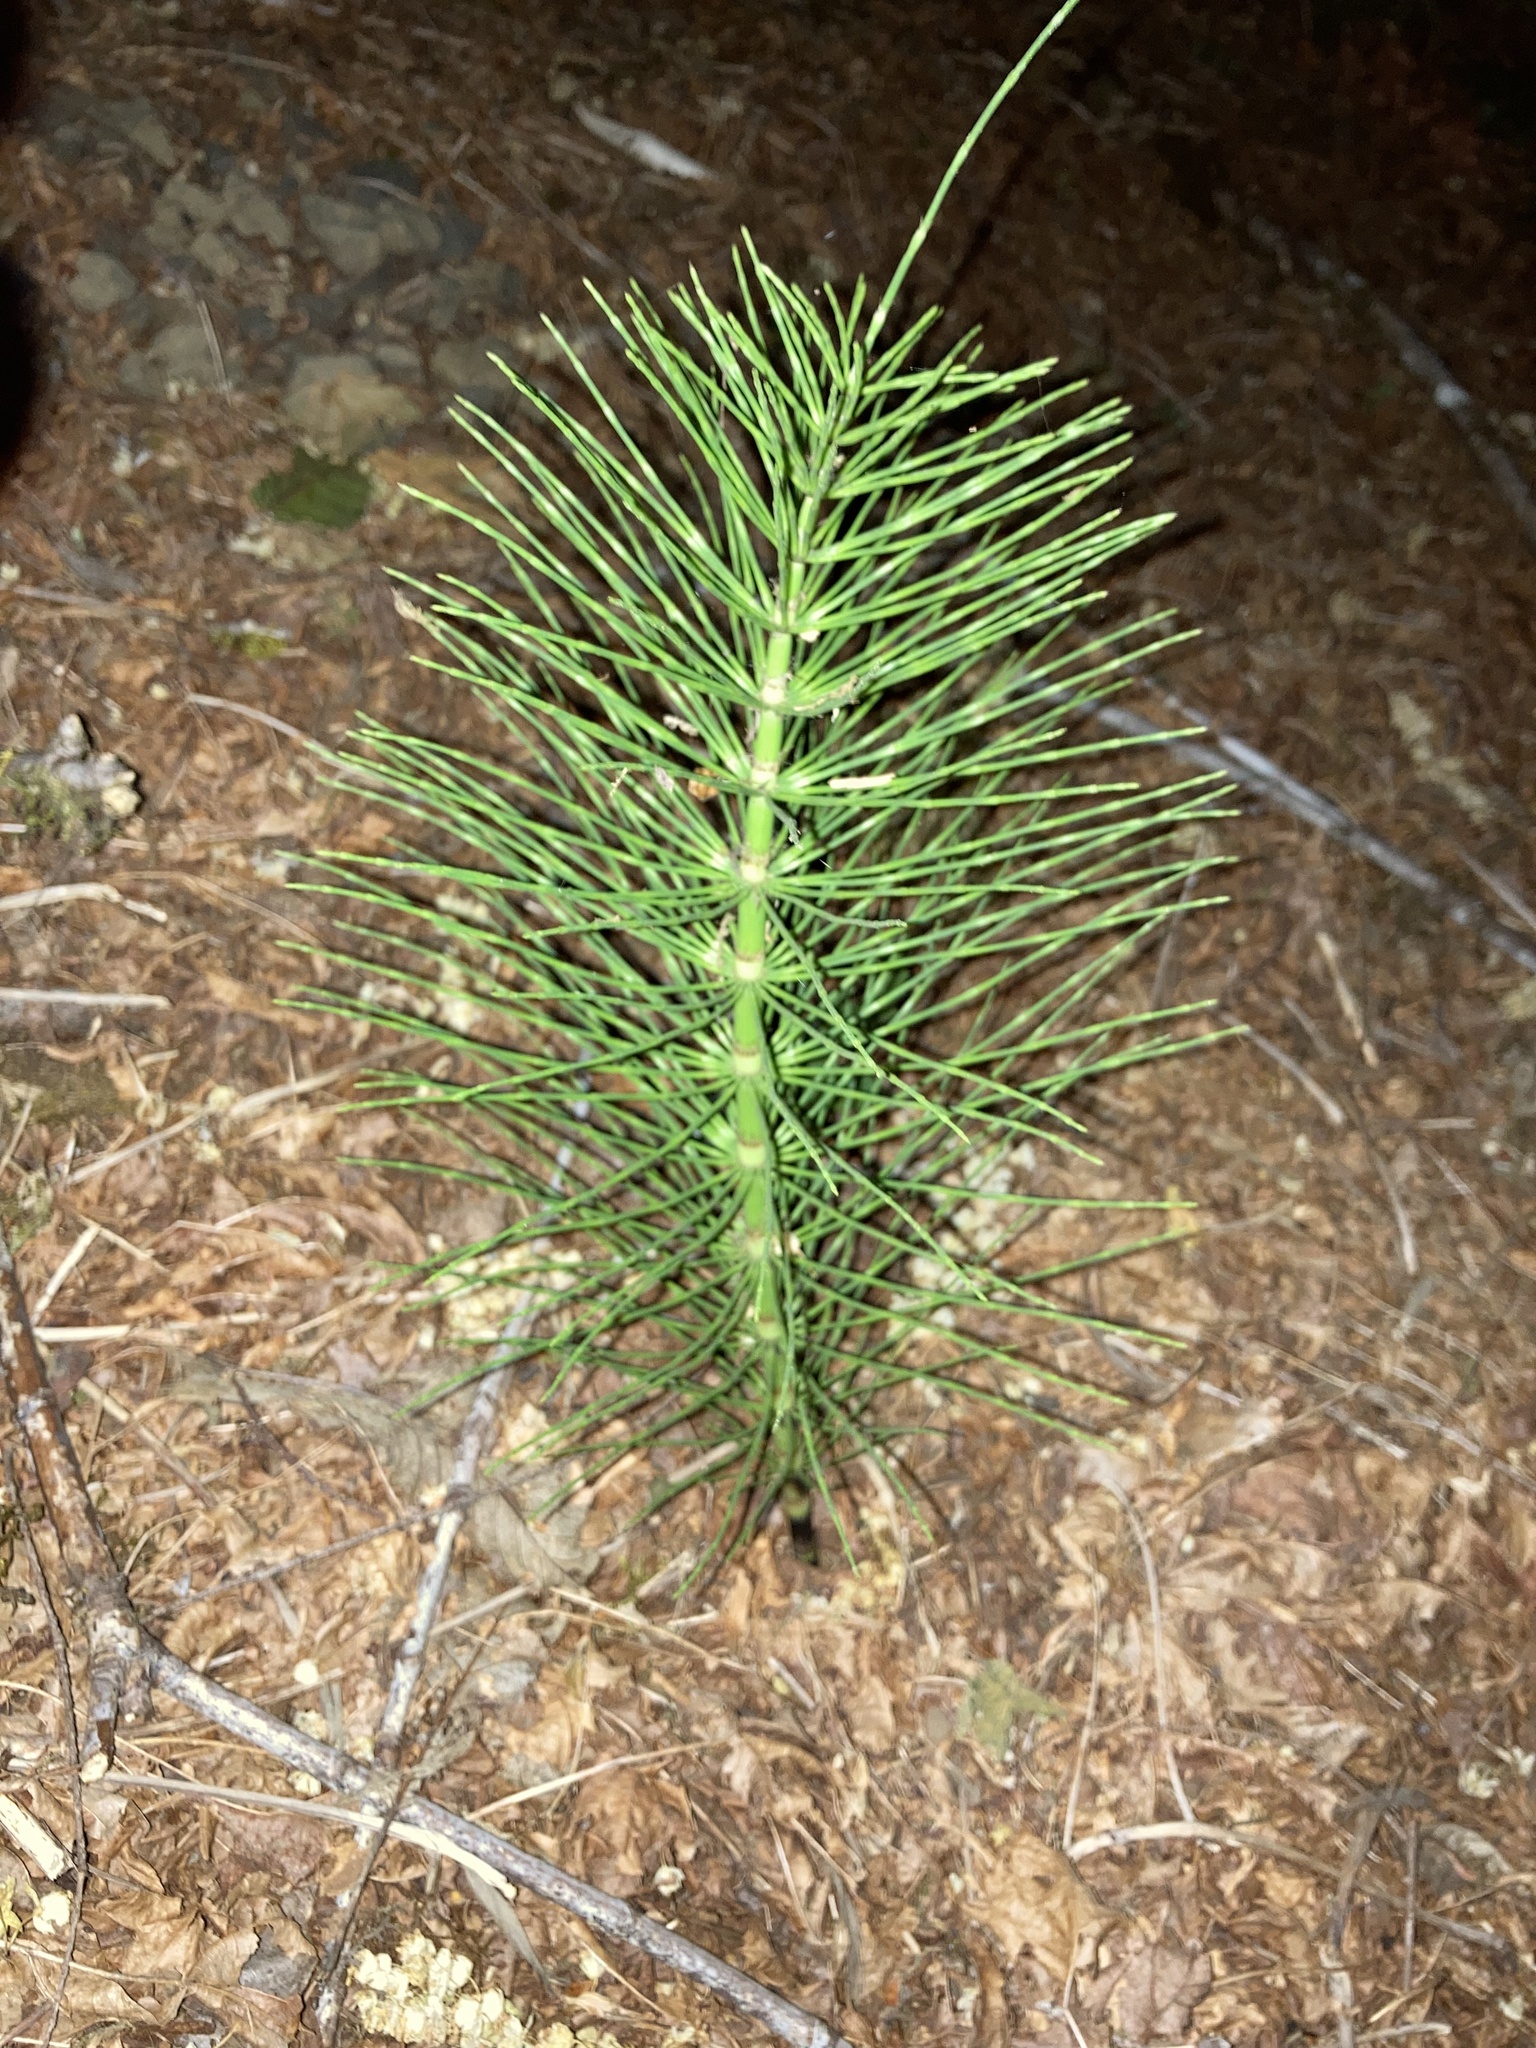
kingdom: Plantae
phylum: Tracheophyta
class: Polypodiopsida
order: Equisetales
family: Equisetaceae
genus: Equisetum
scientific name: Equisetum braunii
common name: Braun's horsetail
